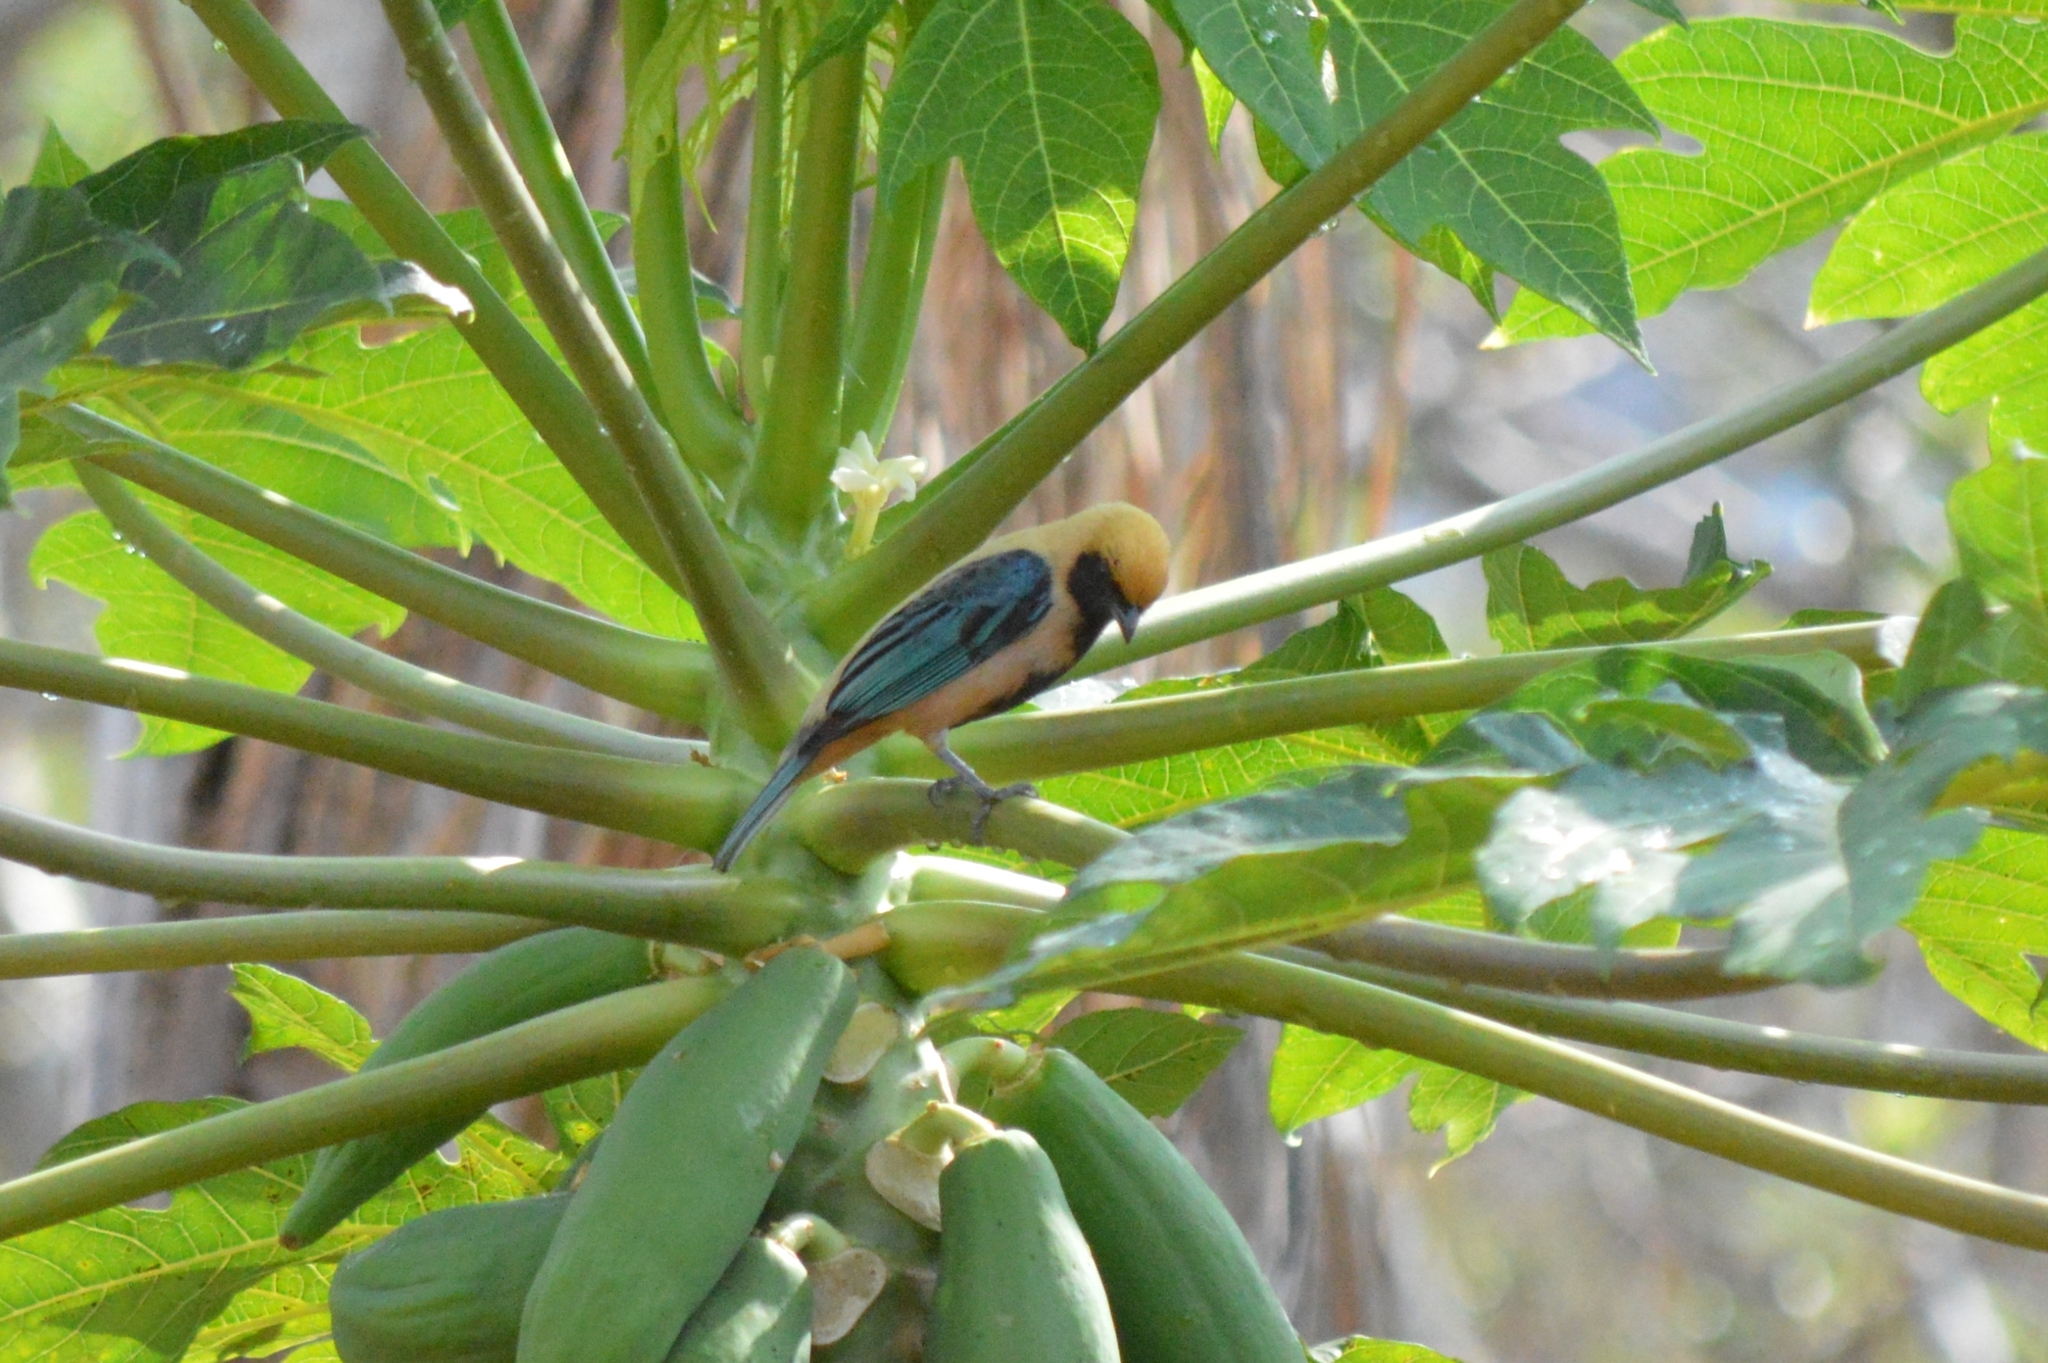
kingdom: Animalia
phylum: Chordata
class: Aves
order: Passeriformes
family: Thraupidae
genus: Stilpnia
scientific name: Stilpnia cayana
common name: Burnished-buff tanager
